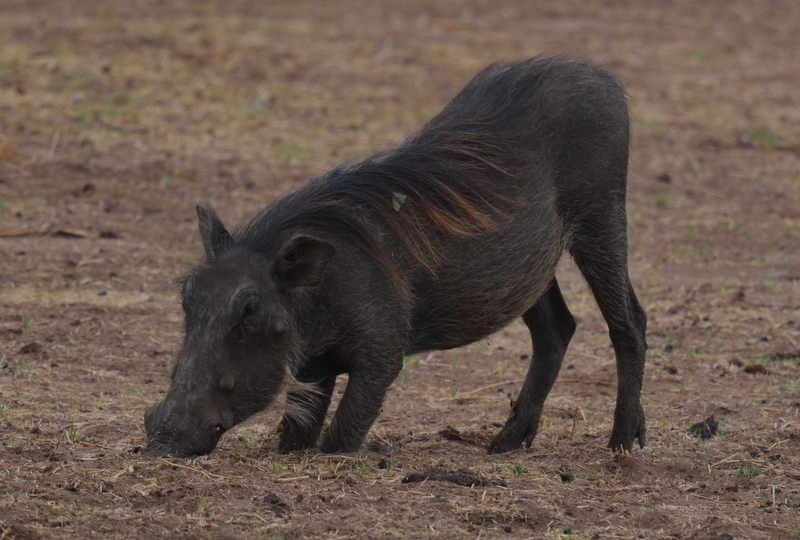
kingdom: Animalia
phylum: Chordata
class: Mammalia
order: Artiodactyla
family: Suidae
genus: Phacochoerus
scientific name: Phacochoerus africanus
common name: Common warthog
